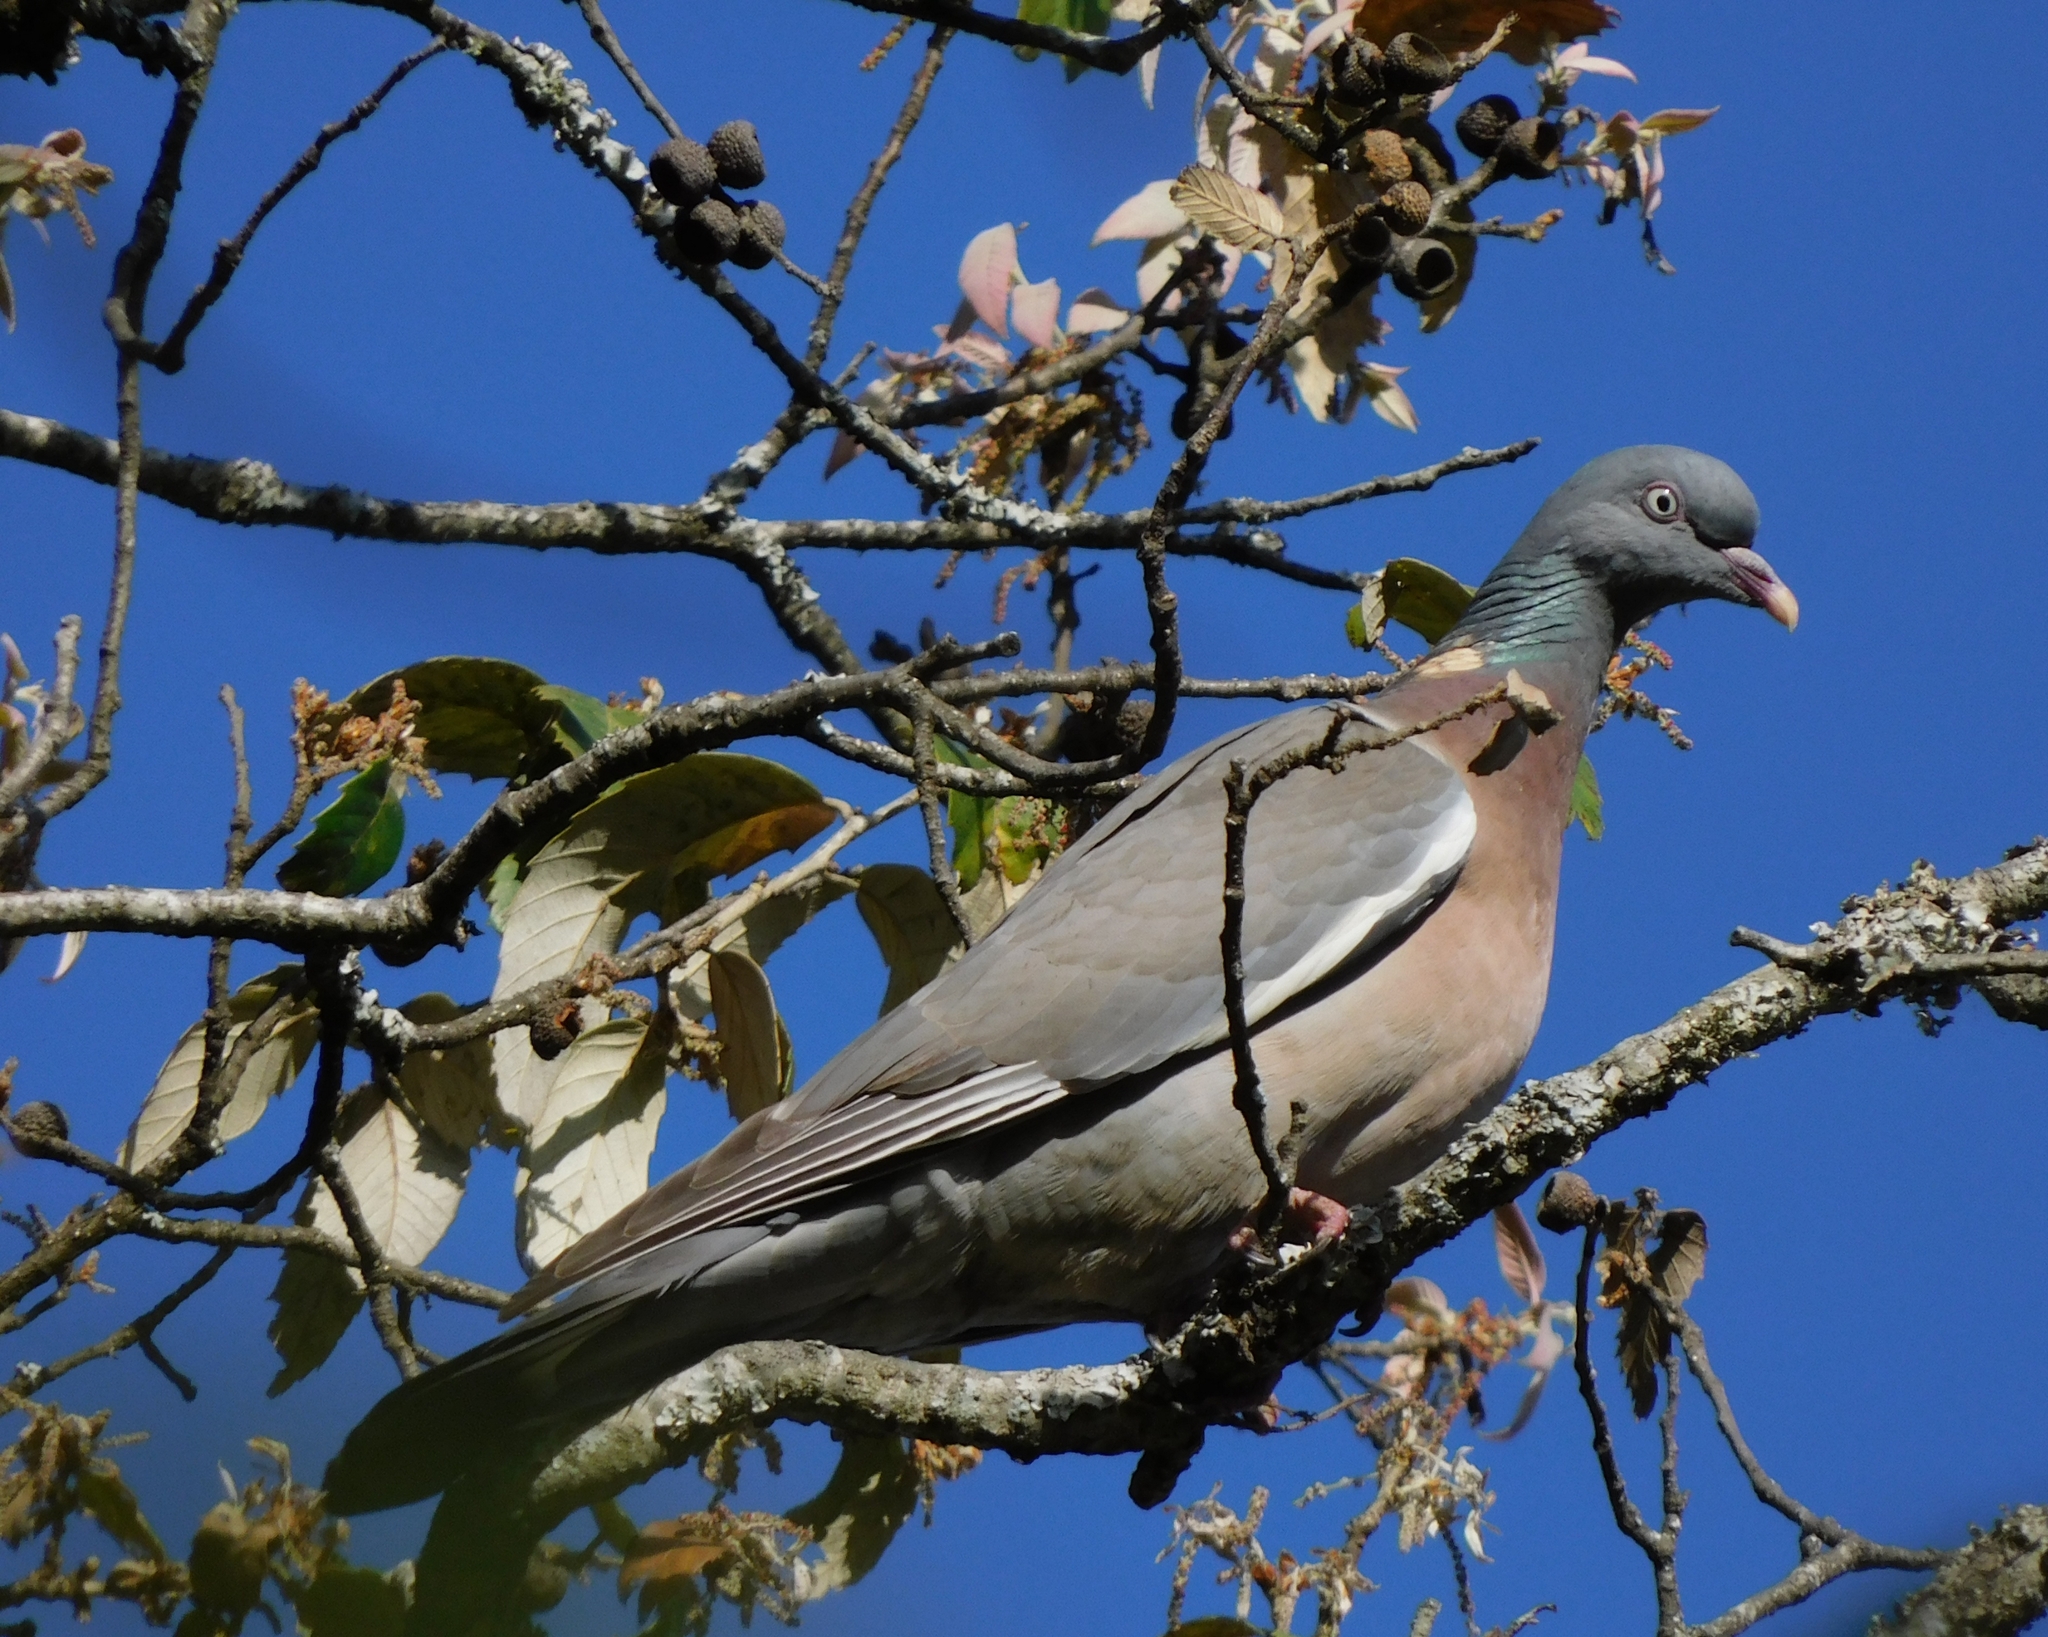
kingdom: Animalia
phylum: Chordata
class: Aves
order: Columbiformes
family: Columbidae
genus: Columba
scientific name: Columba palumbus
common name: Common wood pigeon
